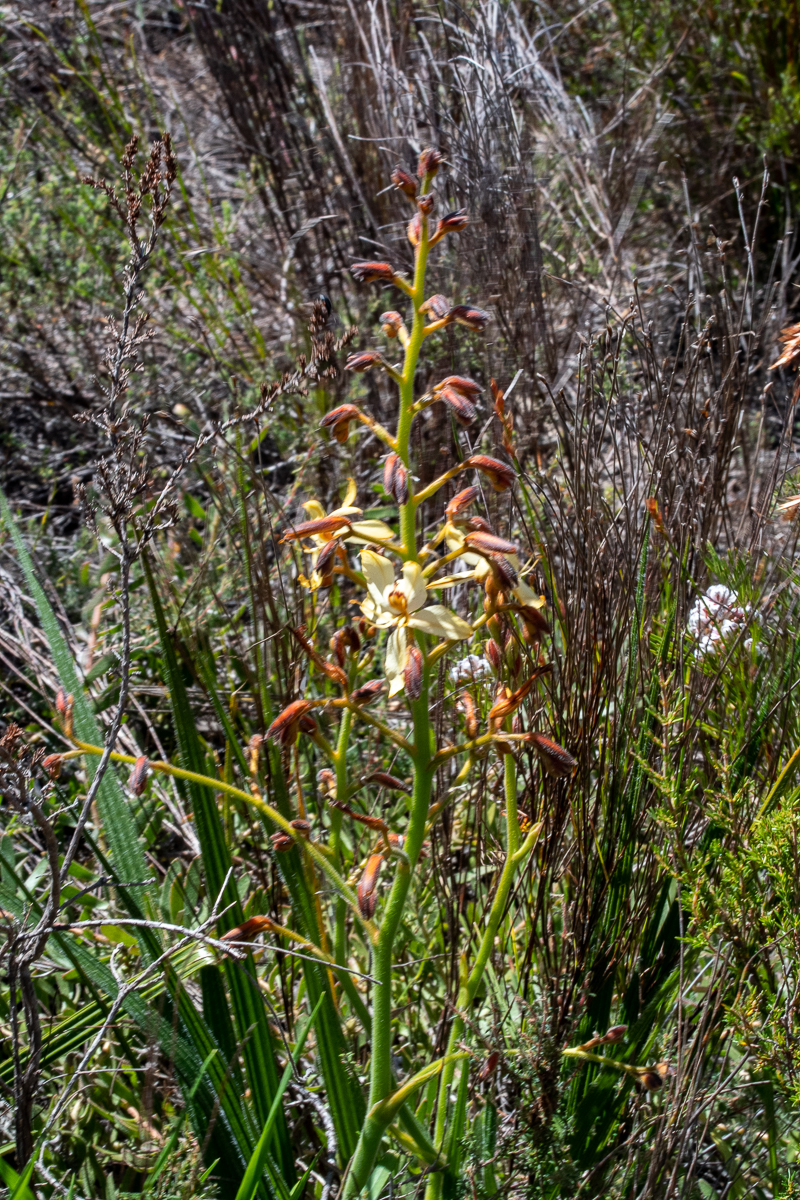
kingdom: Plantae
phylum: Tracheophyta
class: Liliopsida
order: Commelinales
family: Haemodoraceae
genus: Wachendorfia
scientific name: Wachendorfia paniculata
